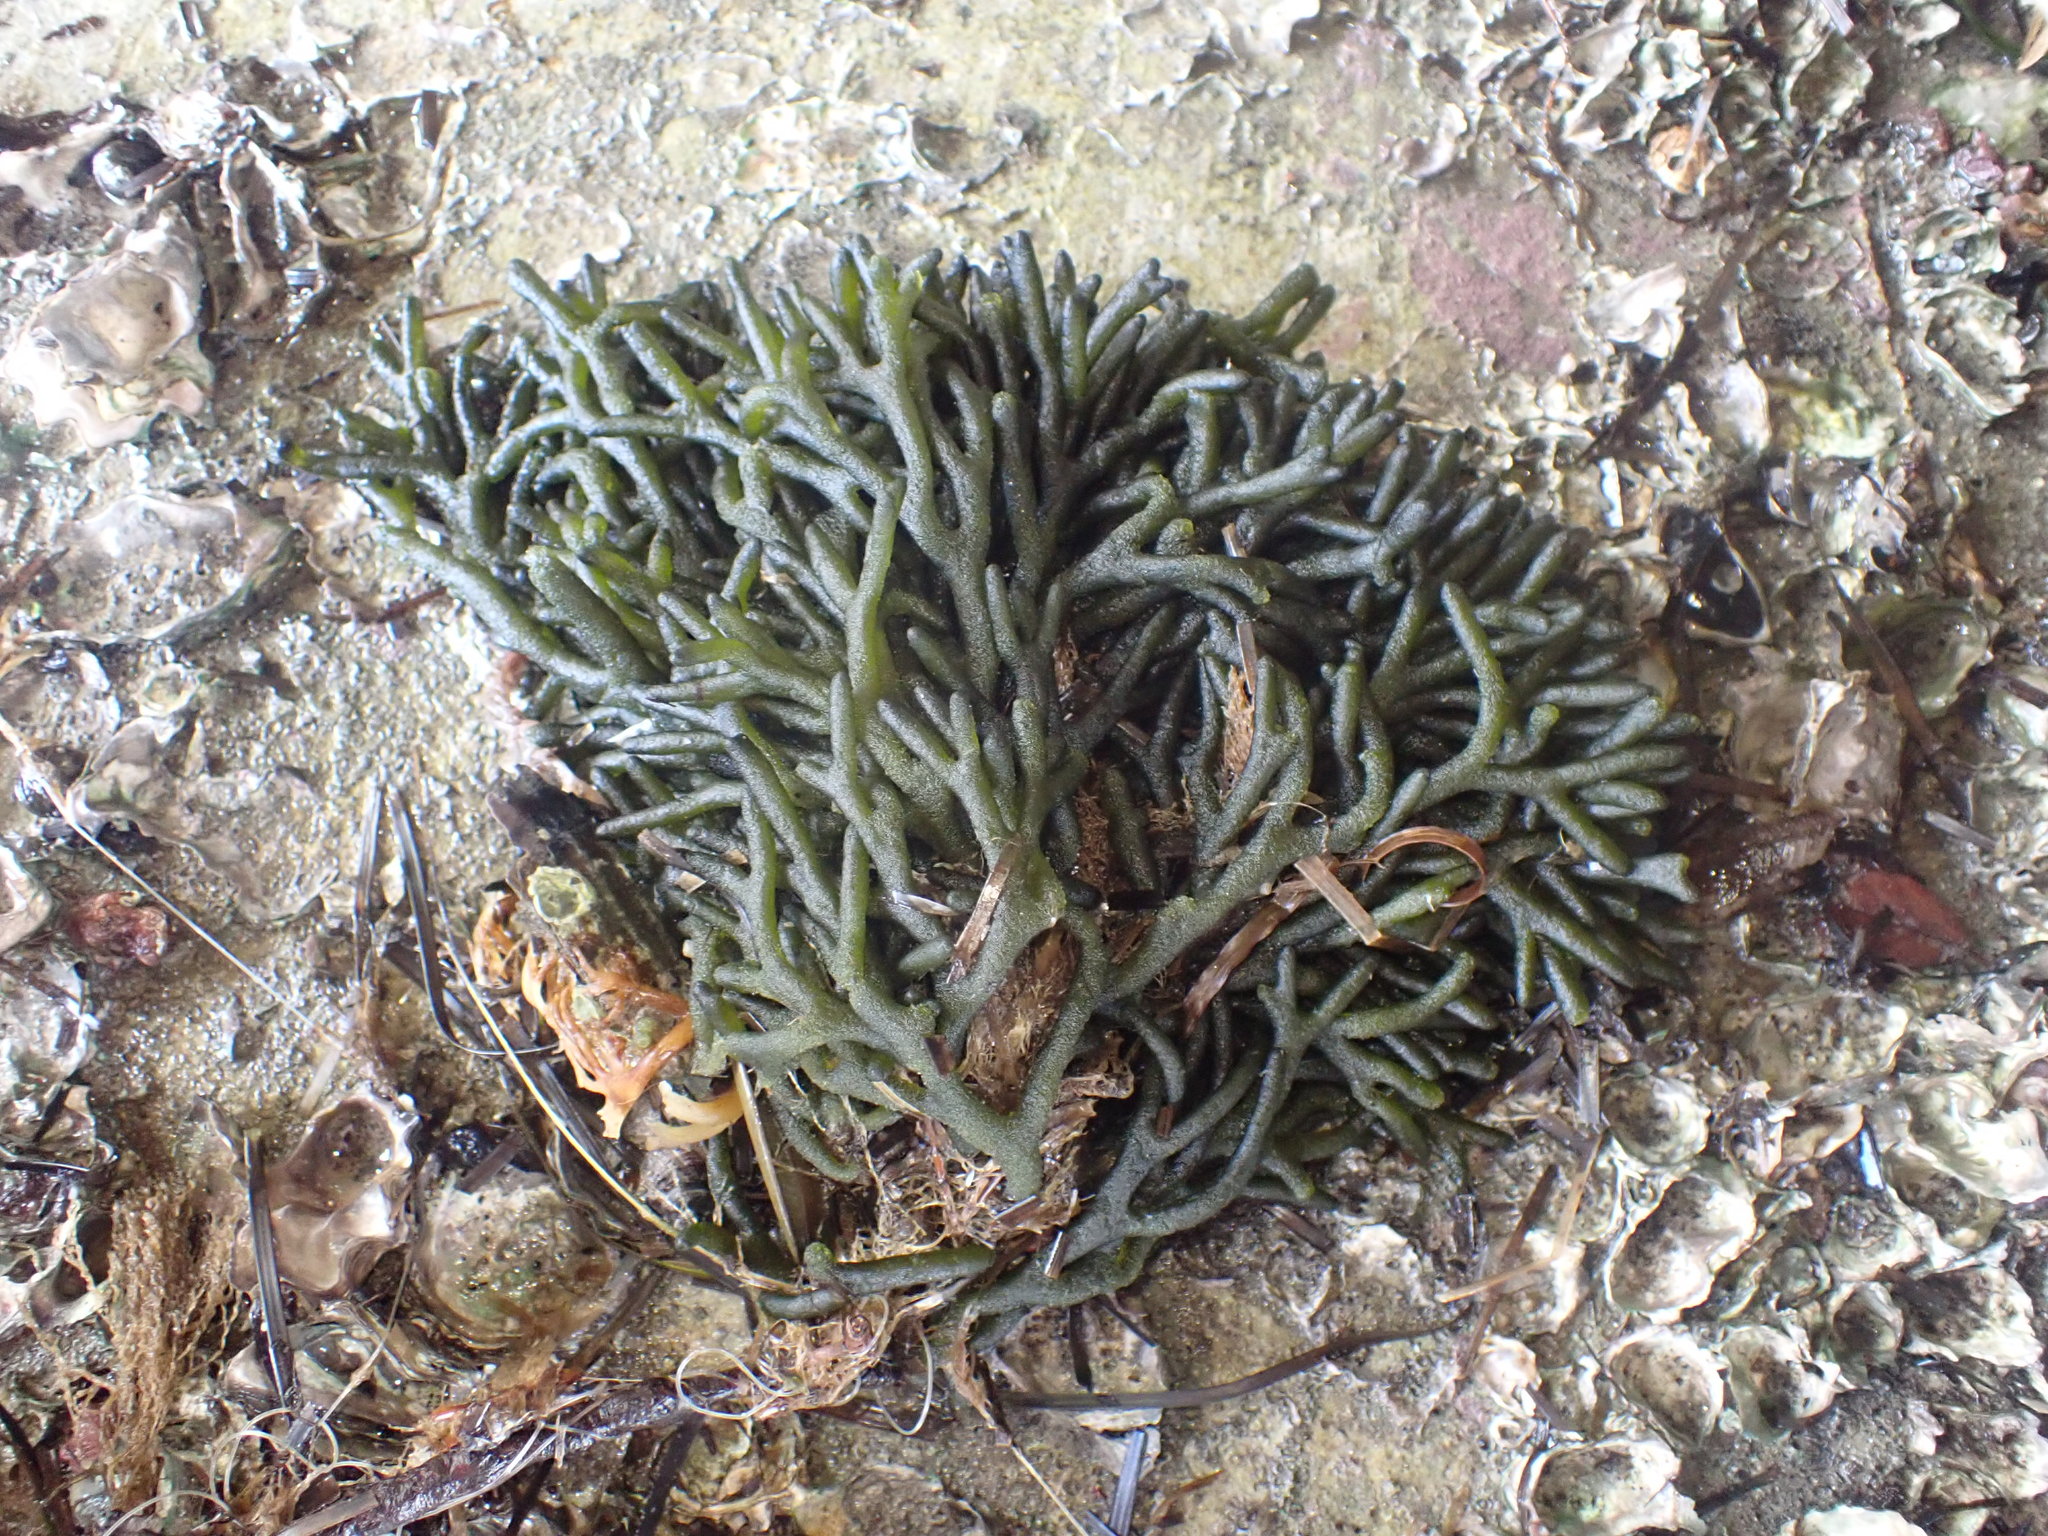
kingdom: Plantae
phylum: Chlorophyta
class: Ulvophyceae
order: Bryopsidales
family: Codiaceae
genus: Codium
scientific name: Codium fragile
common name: Dead man's fingers
